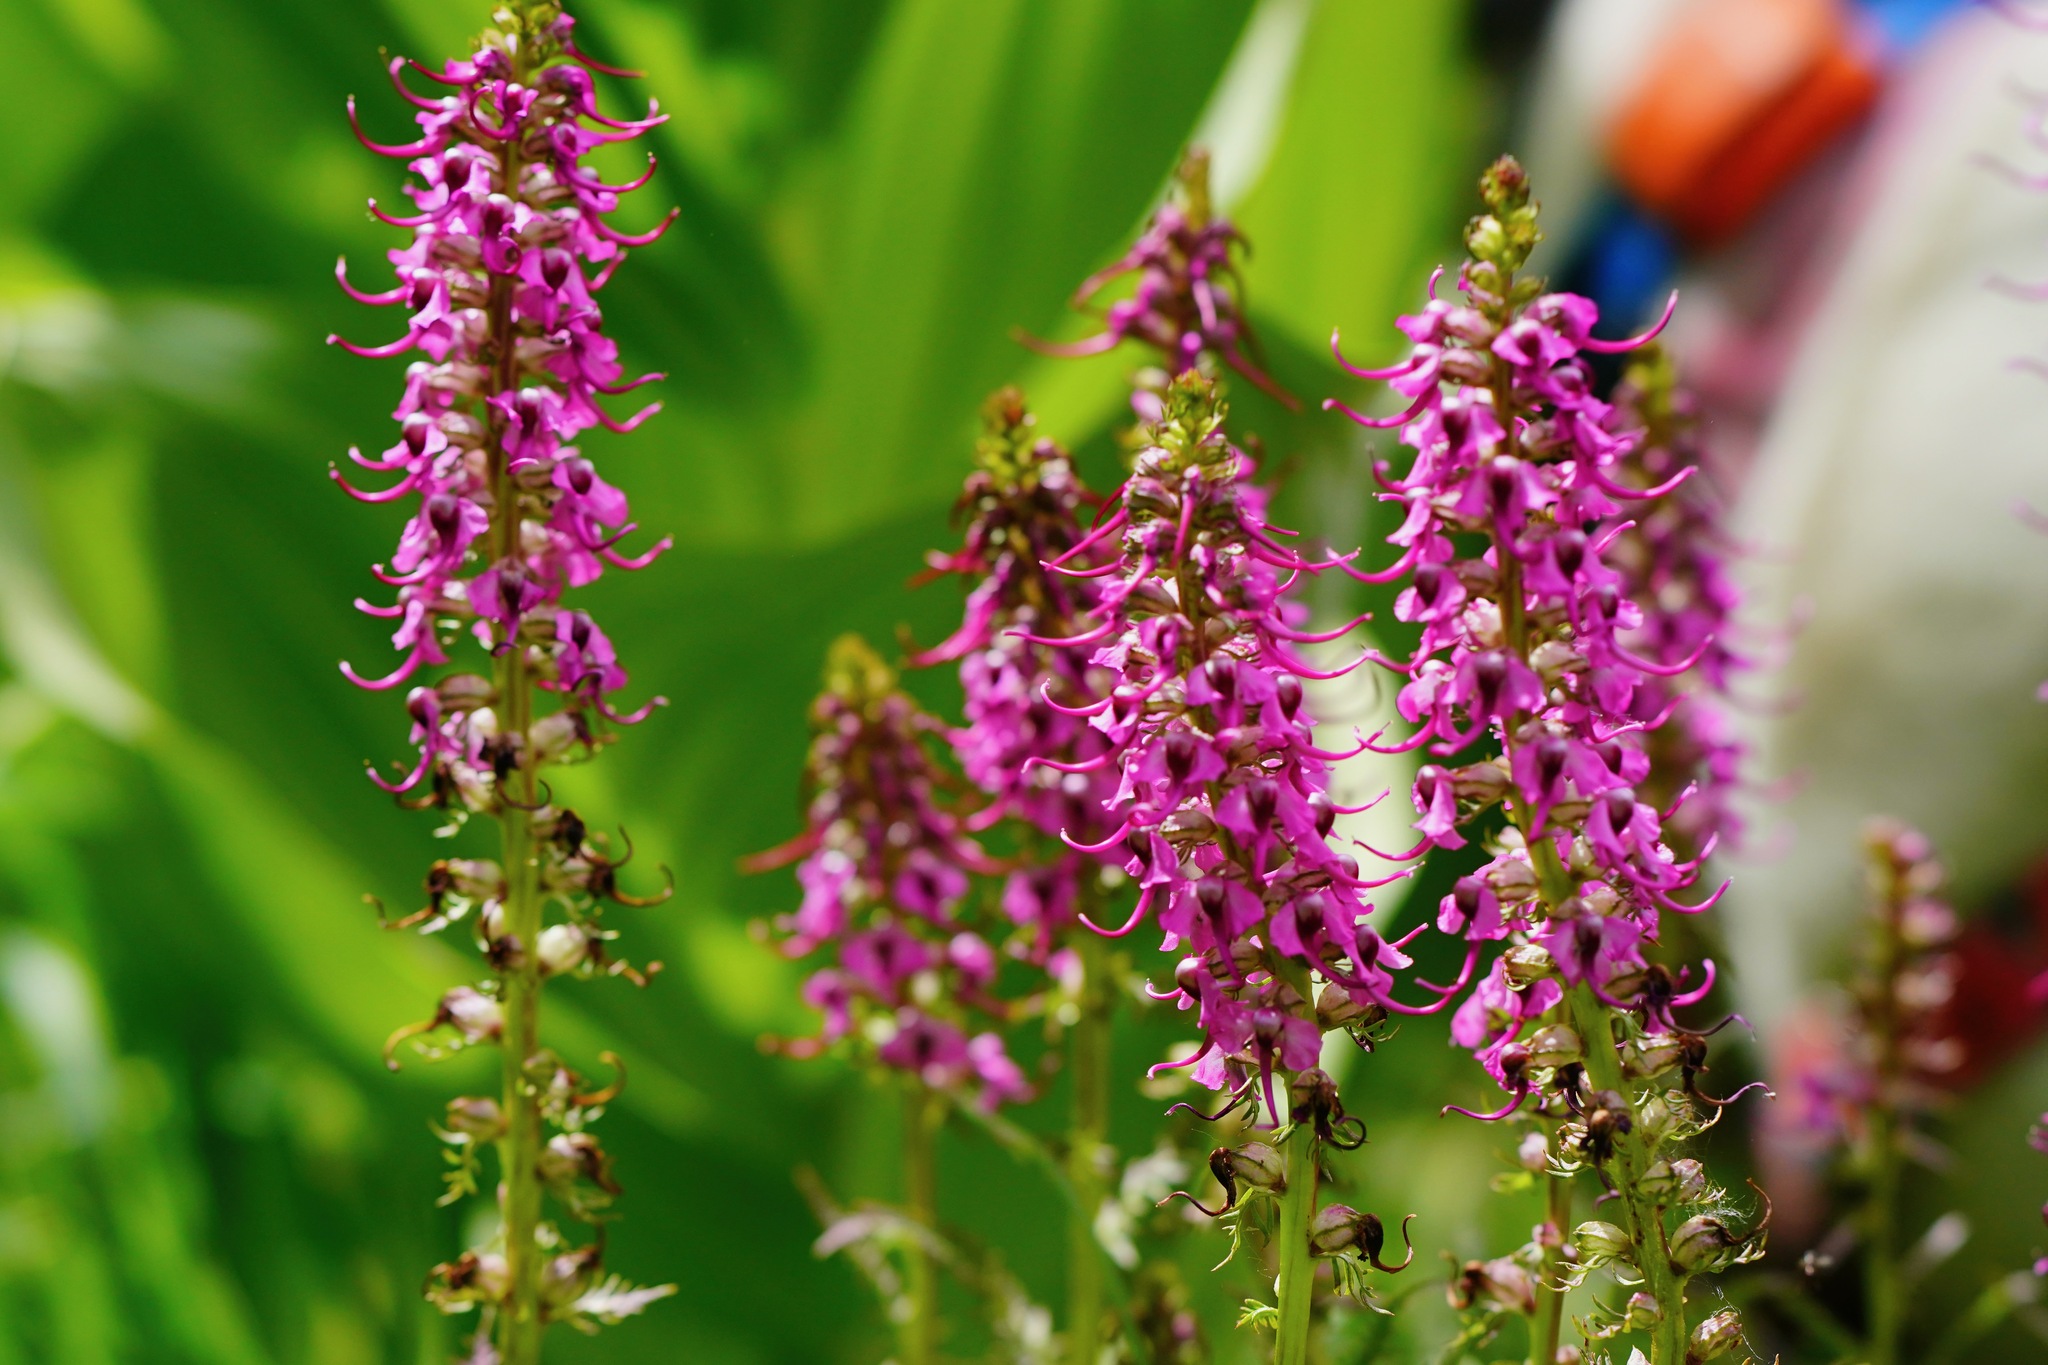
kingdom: Plantae
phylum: Tracheophyta
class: Magnoliopsida
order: Lamiales
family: Orobanchaceae
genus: Pedicularis
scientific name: Pedicularis groenlandica
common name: Elephant's-head
